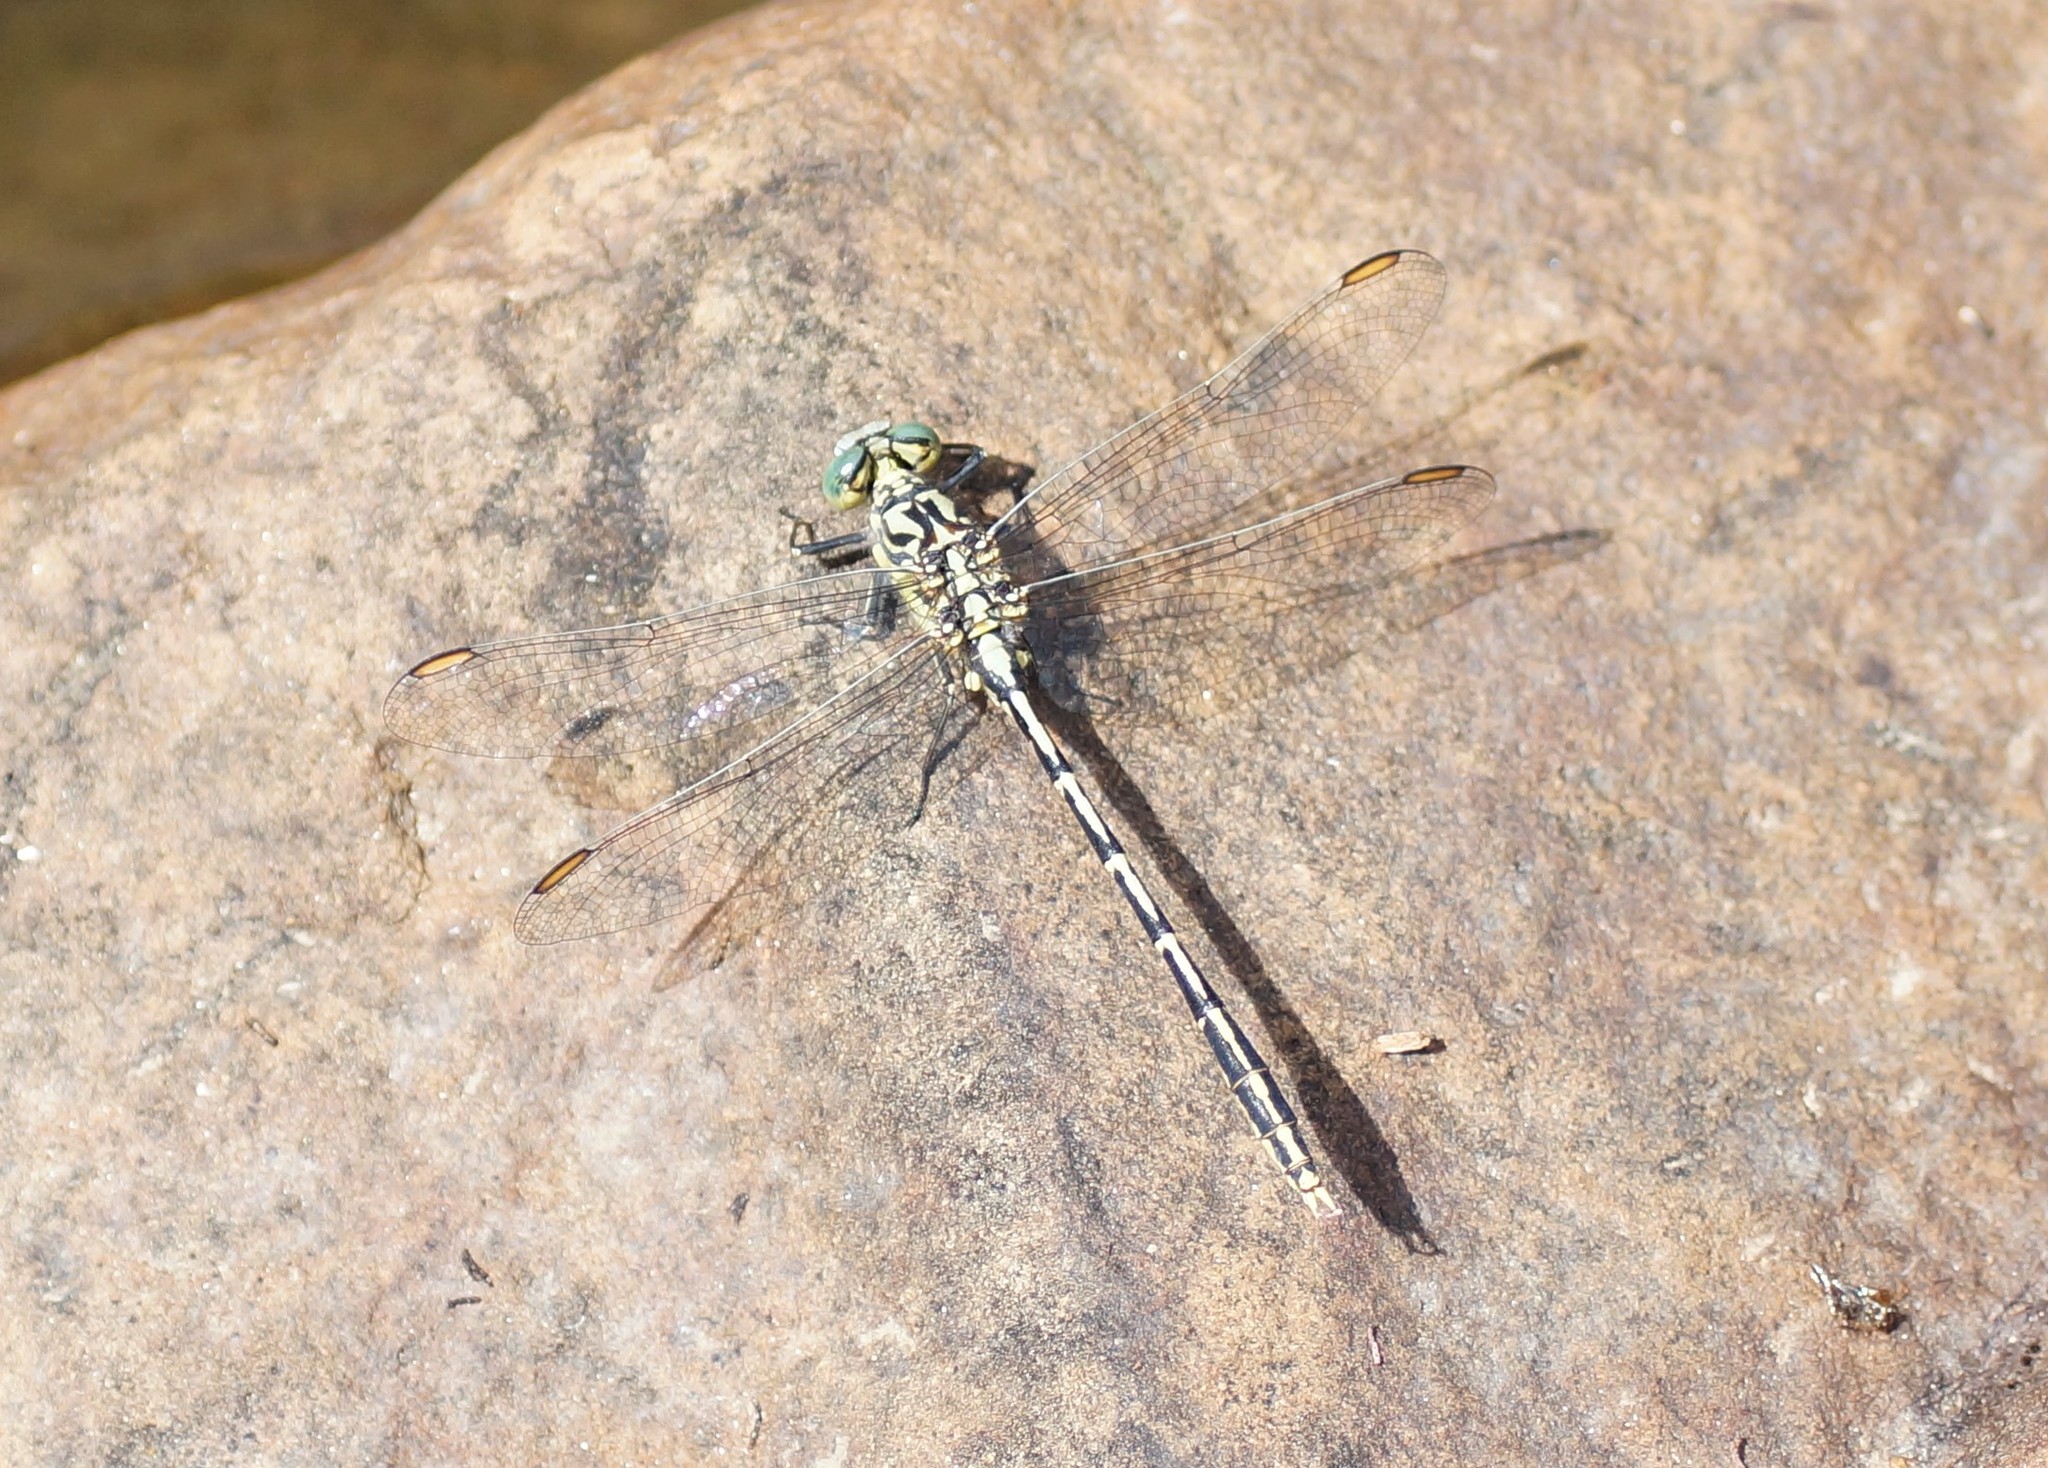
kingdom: Animalia
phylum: Arthropoda
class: Insecta
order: Odonata
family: Gomphidae
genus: Austrogomphus
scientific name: Austrogomphus guerini
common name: Yellow-striped hunter
